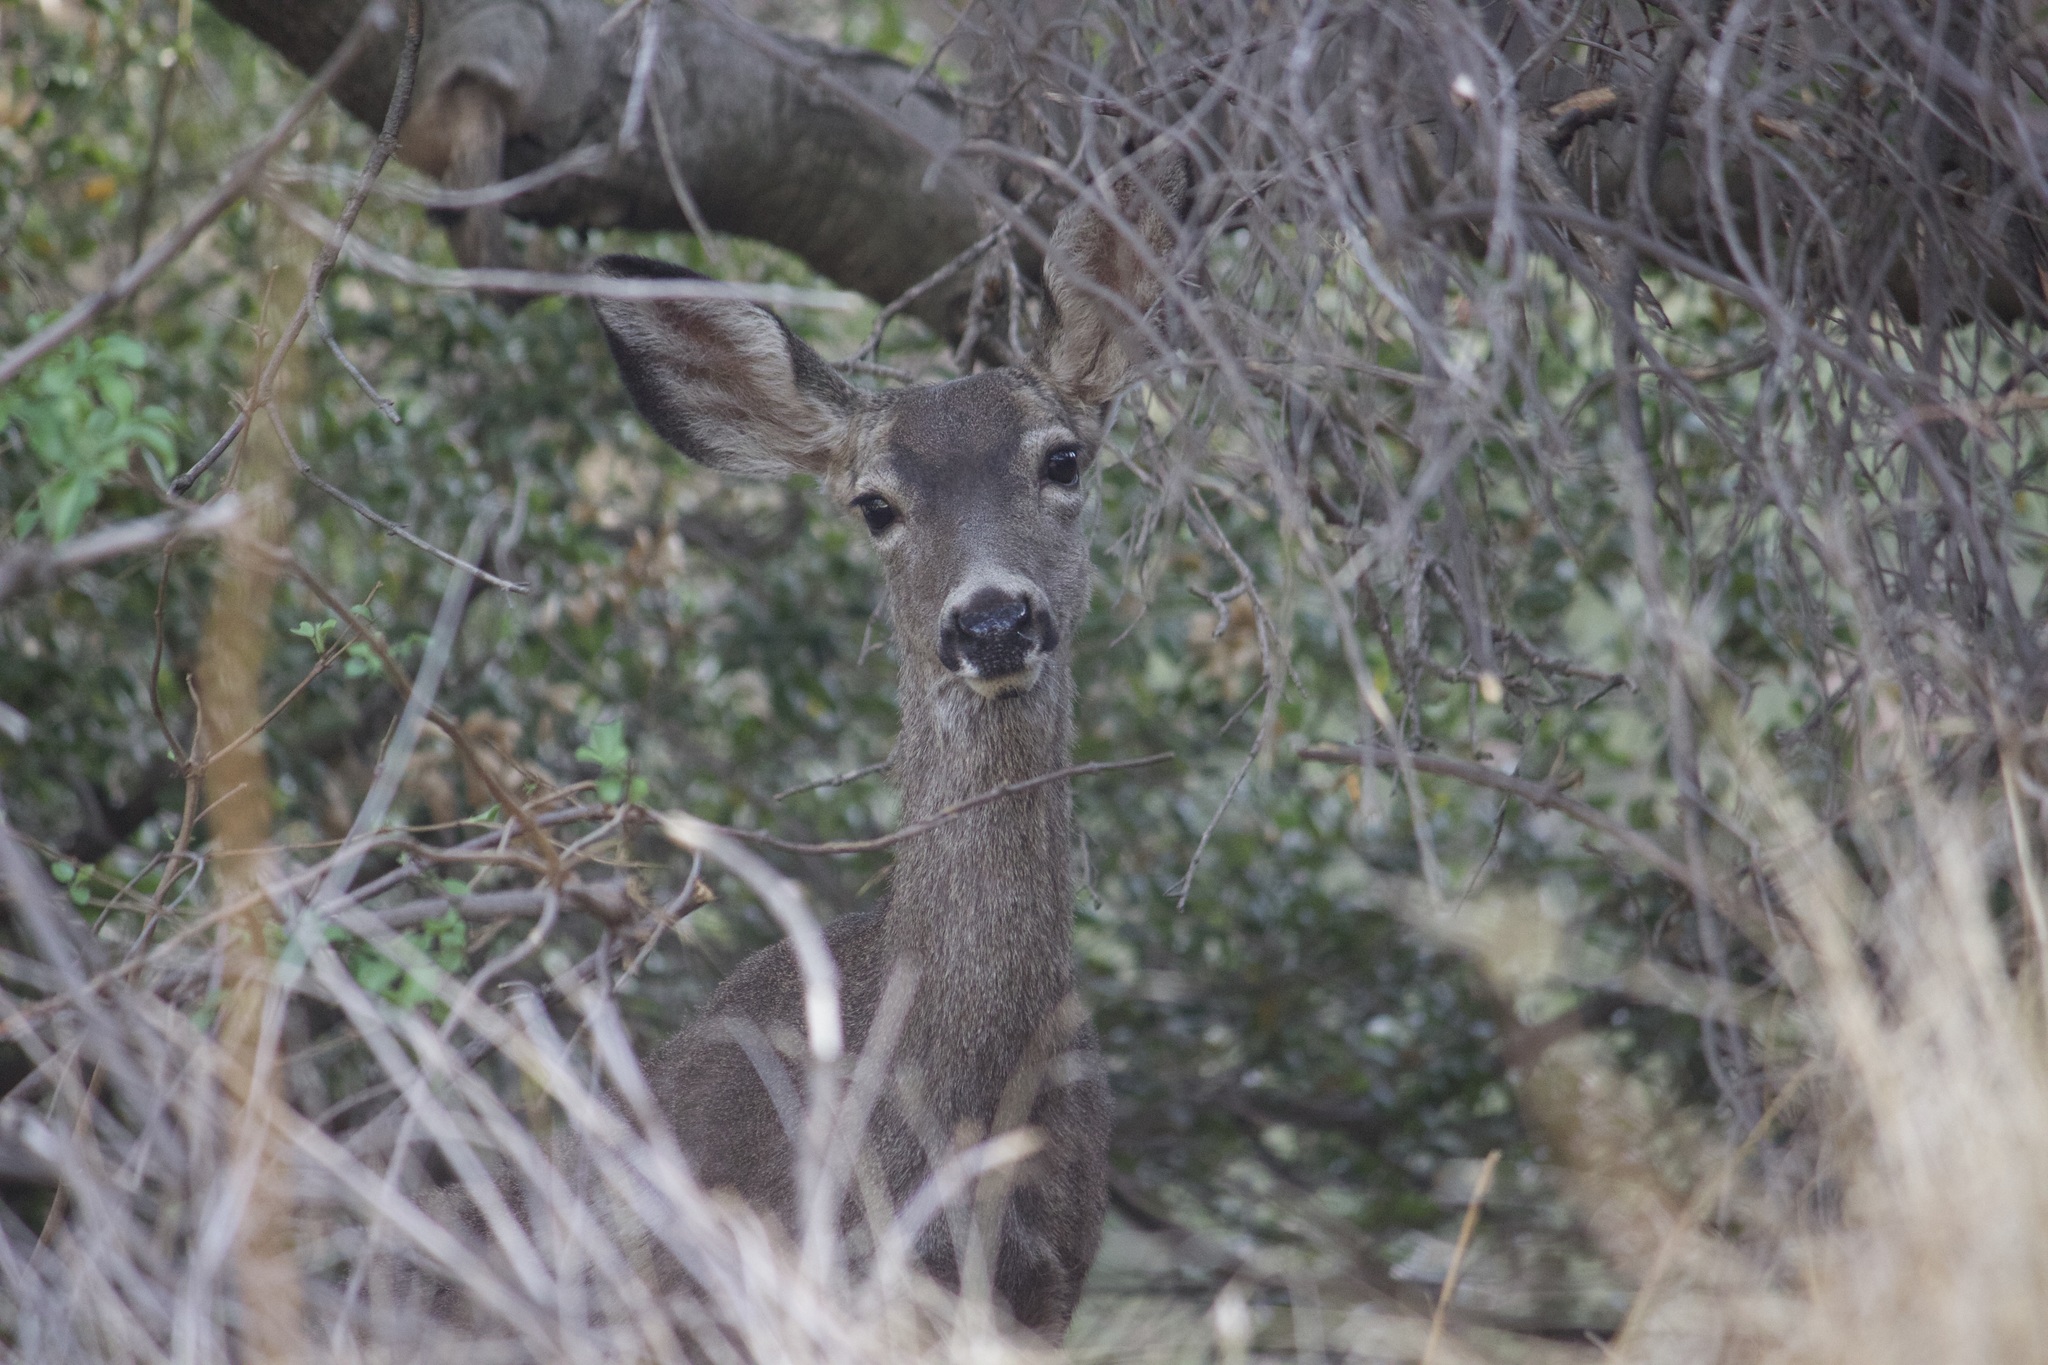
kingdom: Animalia
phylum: Chordata
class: Mammalia
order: Artiodactyla
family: Cervidae
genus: Odocoileus
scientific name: Odocoileus hemionus
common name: Mule deer
